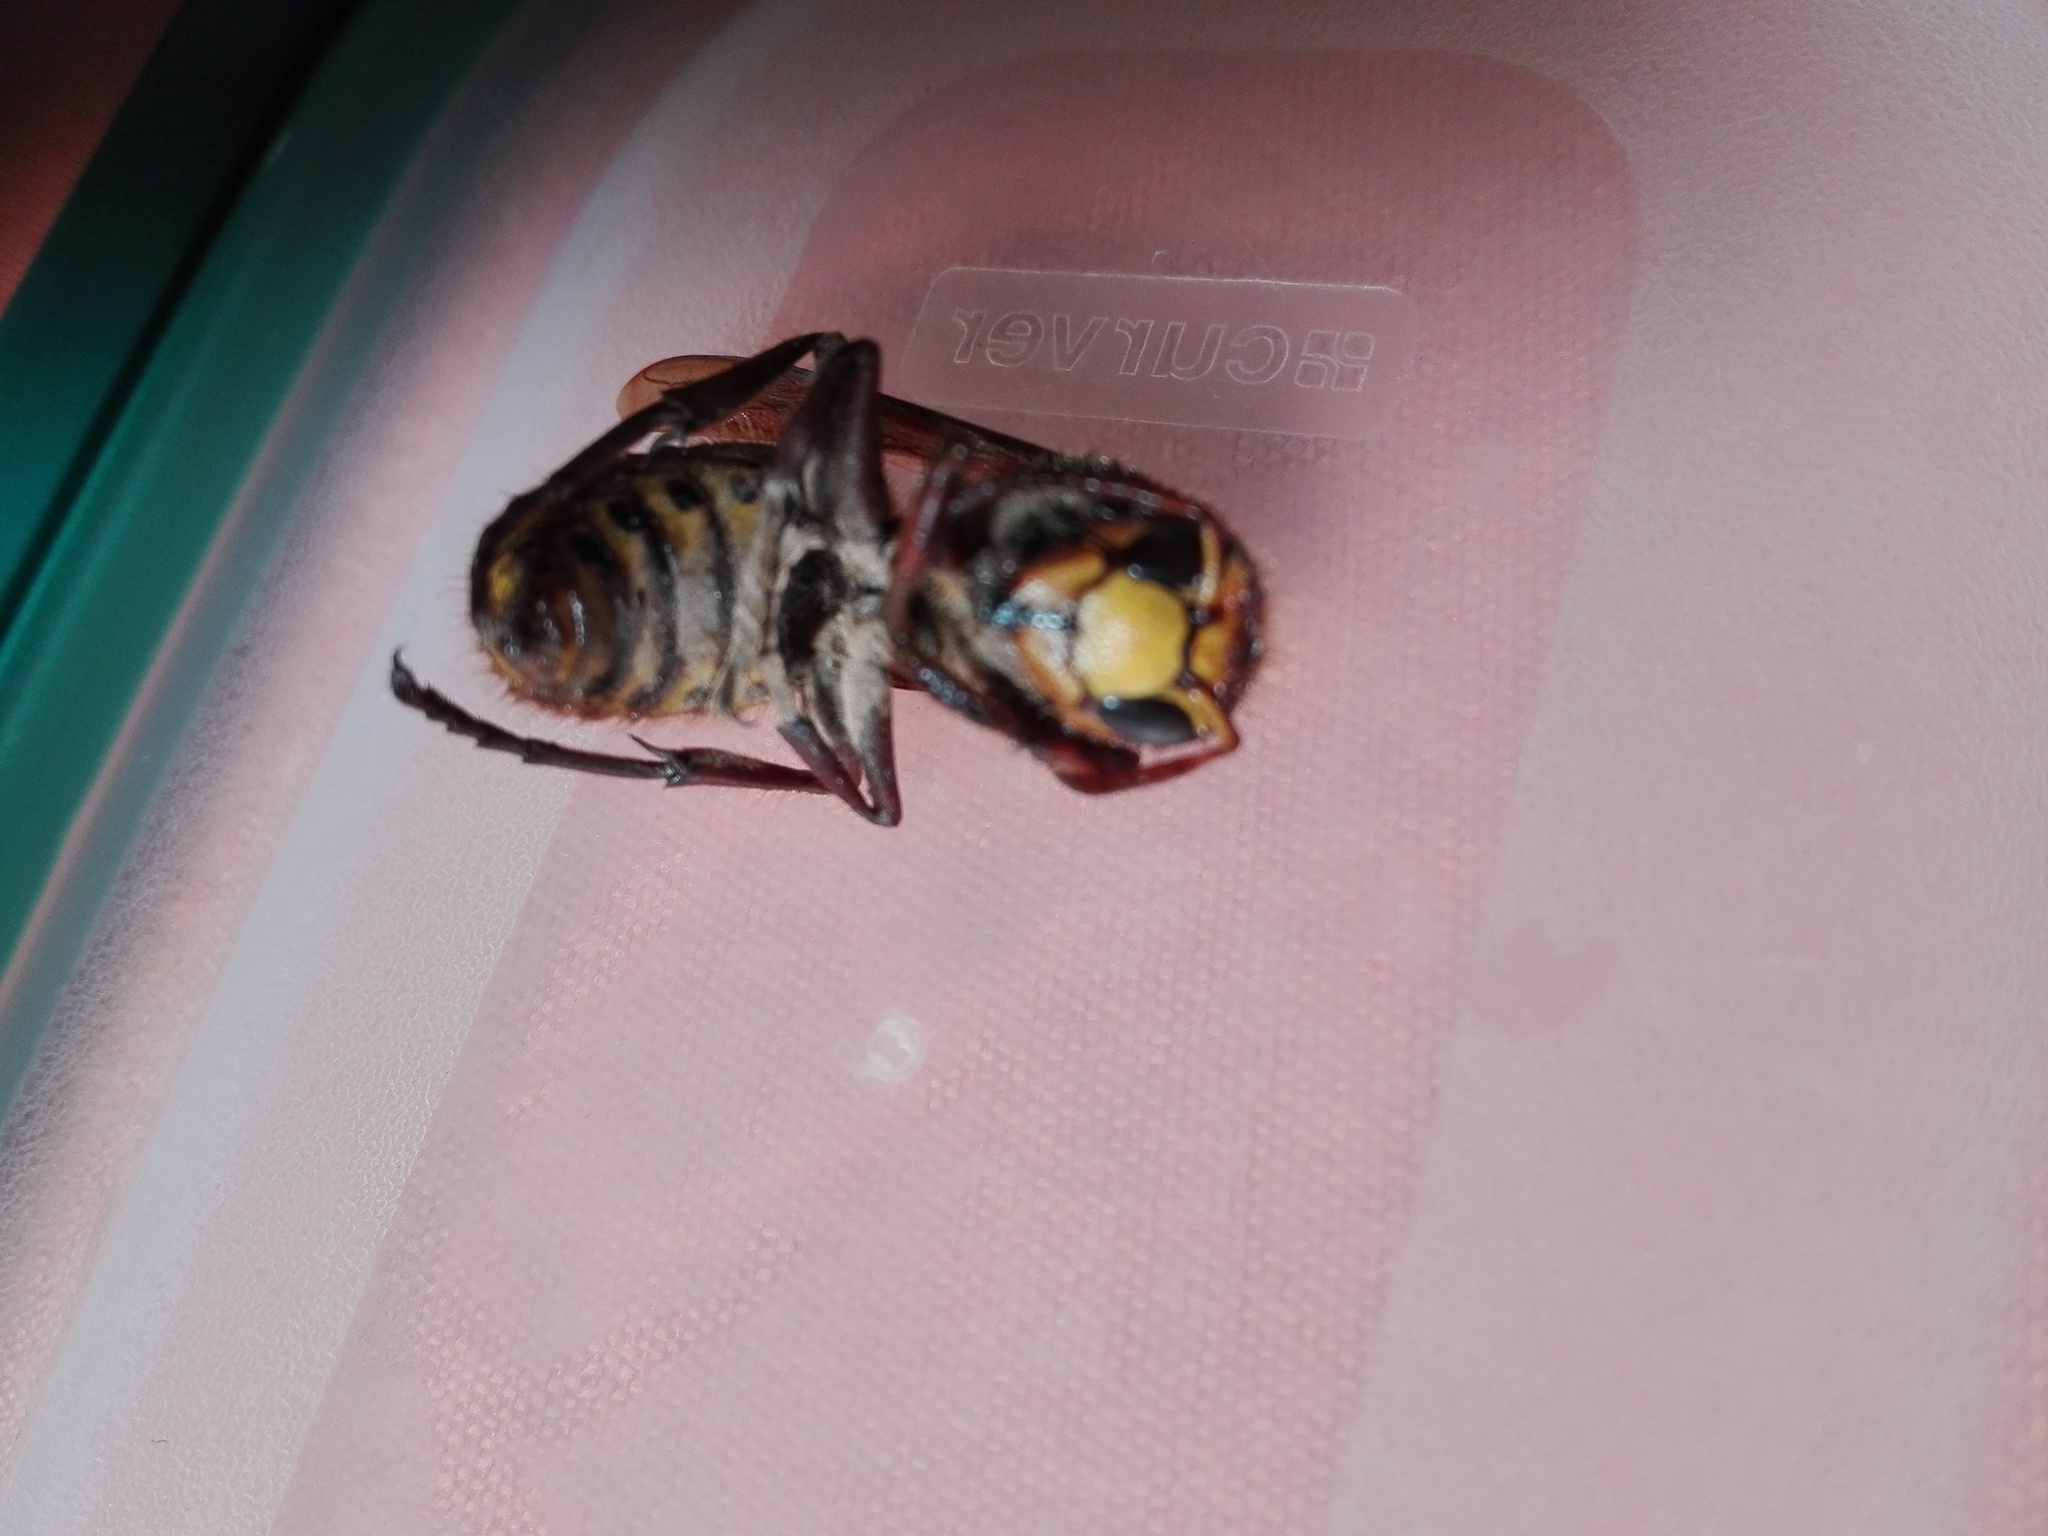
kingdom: Animalia
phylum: Arthropoda
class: Insecta
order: Hymenoptera
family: Vespidae
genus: Vespa
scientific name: Vespa crabro
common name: Hornet
